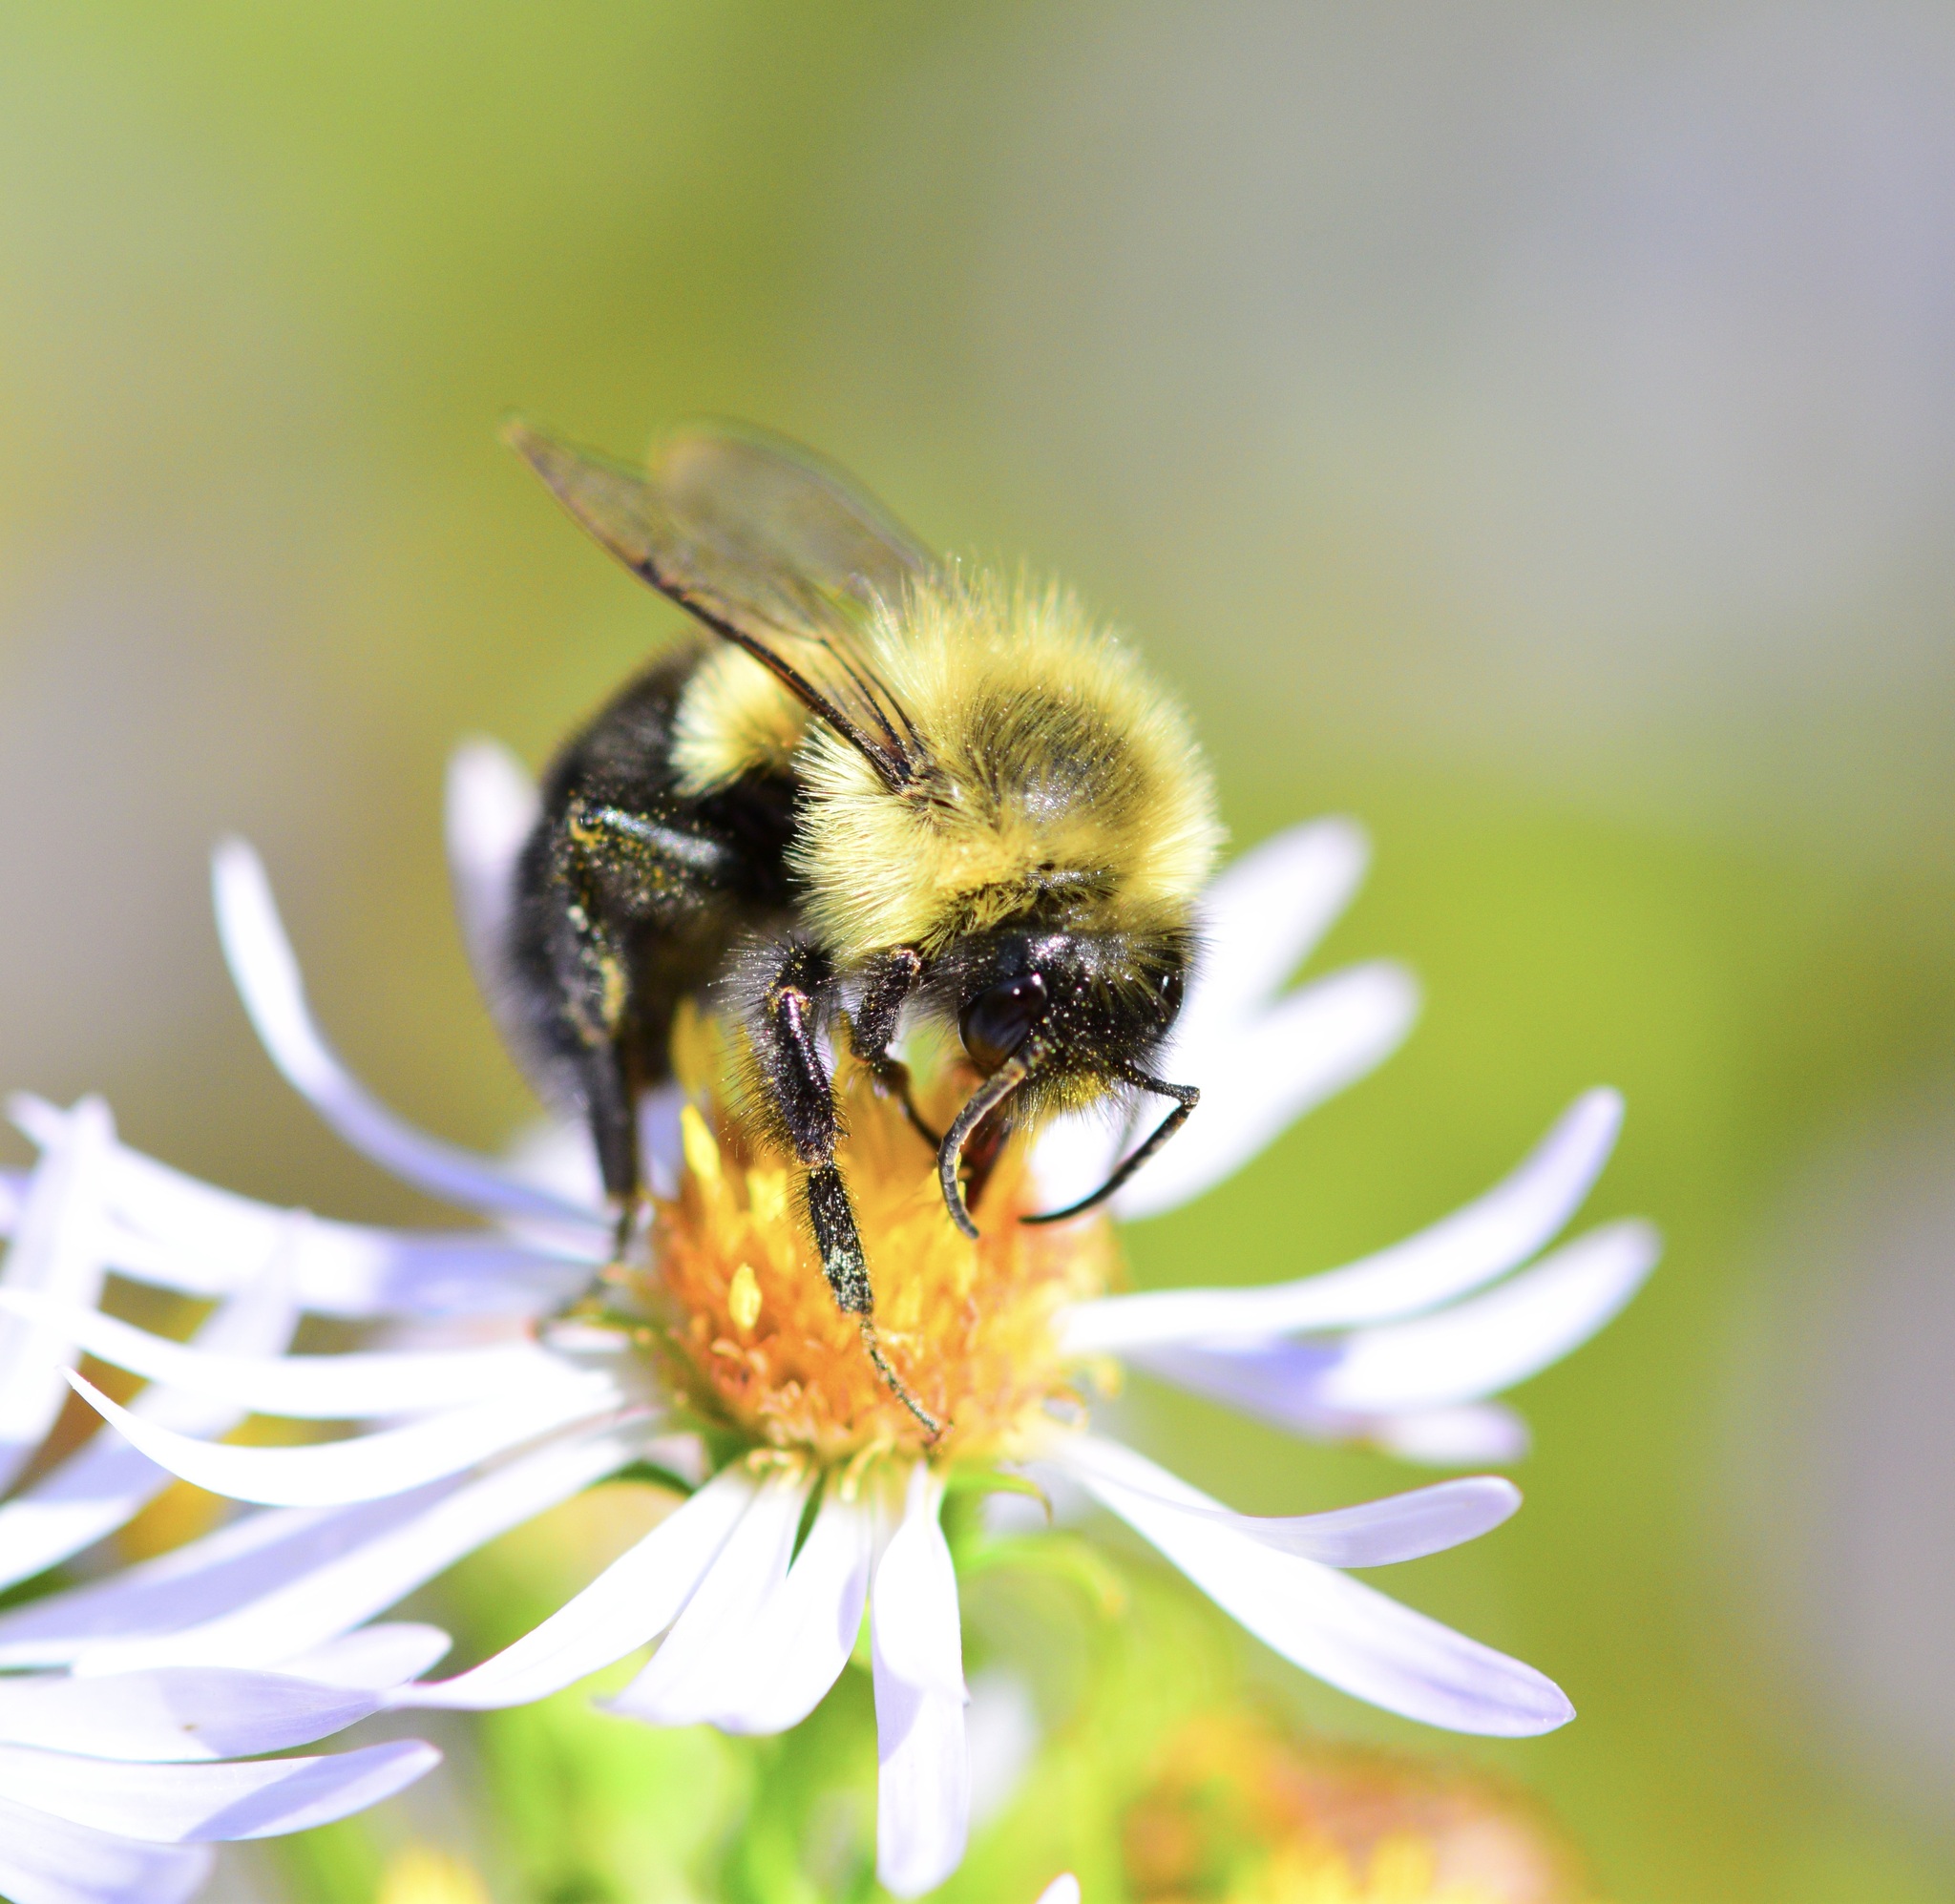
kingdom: Animalia
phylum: Arthropoda
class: Insecta
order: Hymenoptera
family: Apidae
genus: Bombus
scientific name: Bombus impatiens
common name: Common eastern bumble bee
